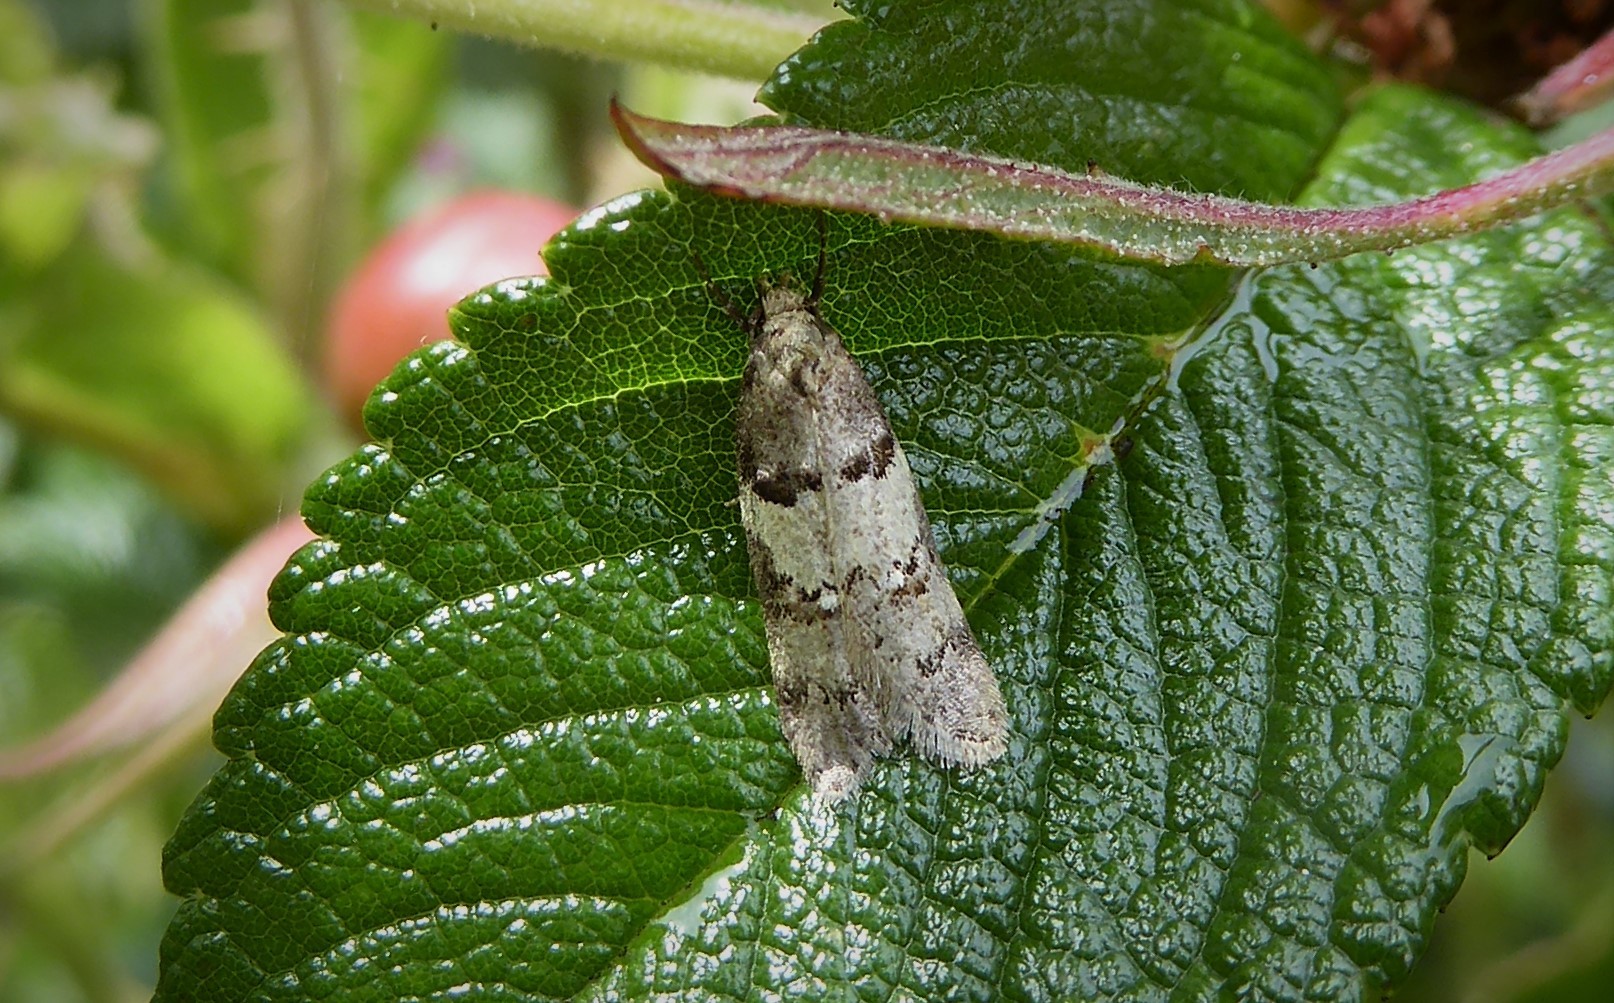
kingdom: Animalia
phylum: Arthropoda
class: Insecta
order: Lepidoptera
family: Oecophoridae
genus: Trachypepla
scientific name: Trachypepla contritella
